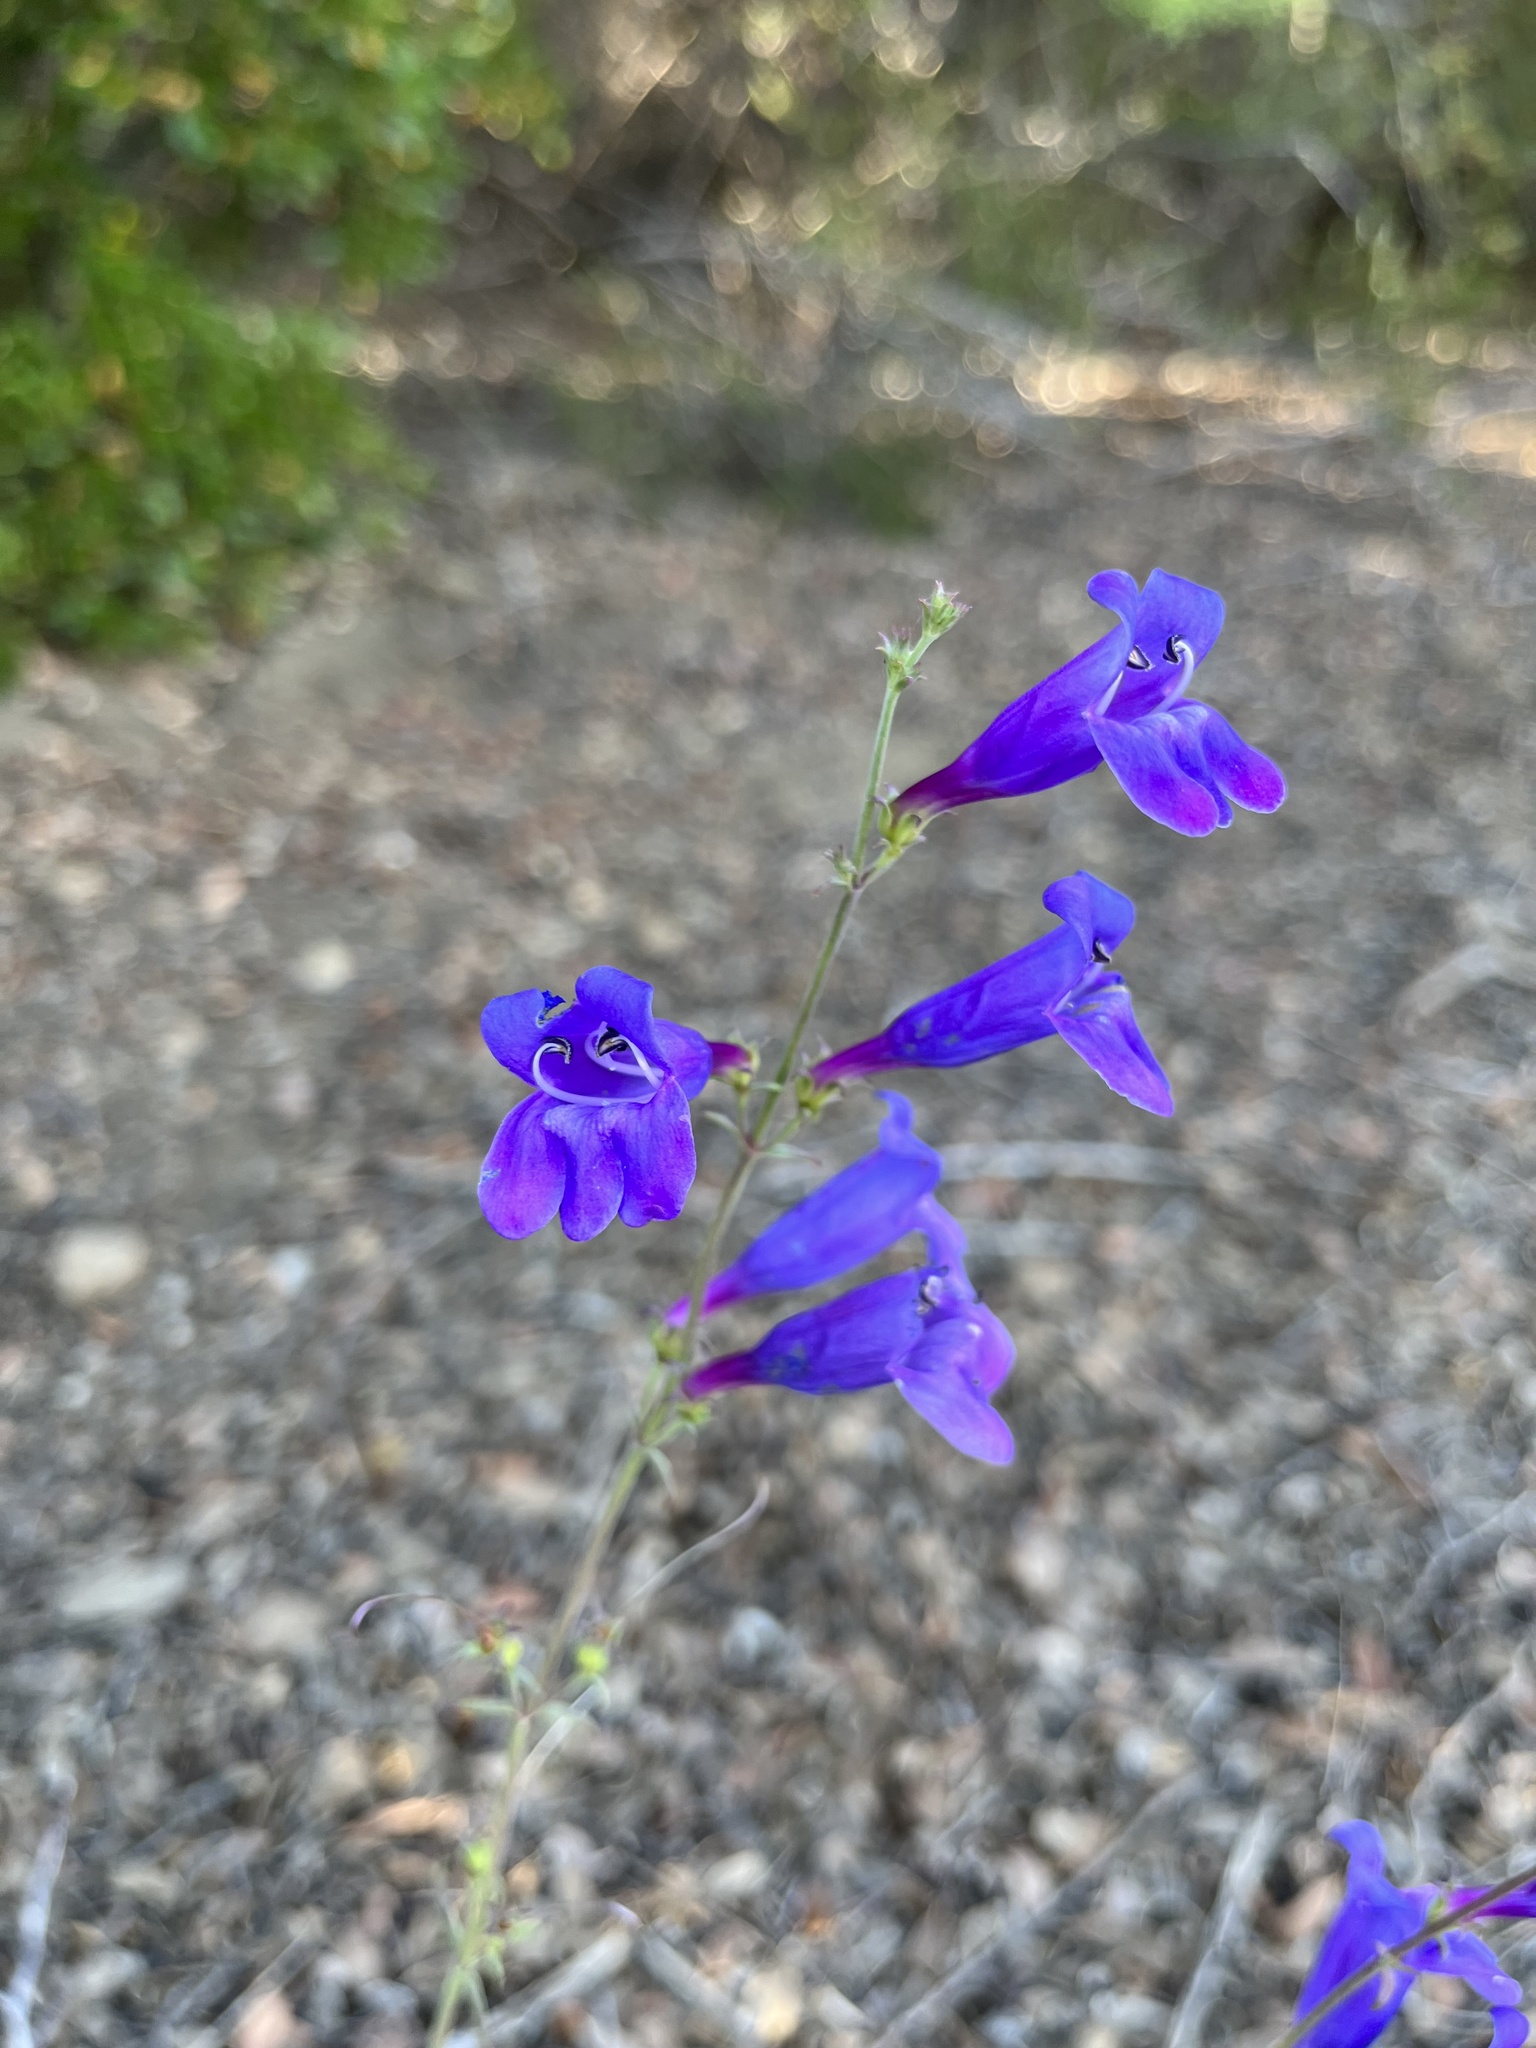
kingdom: Plantae
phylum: Tracheophyta
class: Magnoliopsida
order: Lamiales
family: Plantaginaceae
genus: Penstemon
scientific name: Penstemon heterophyllus
